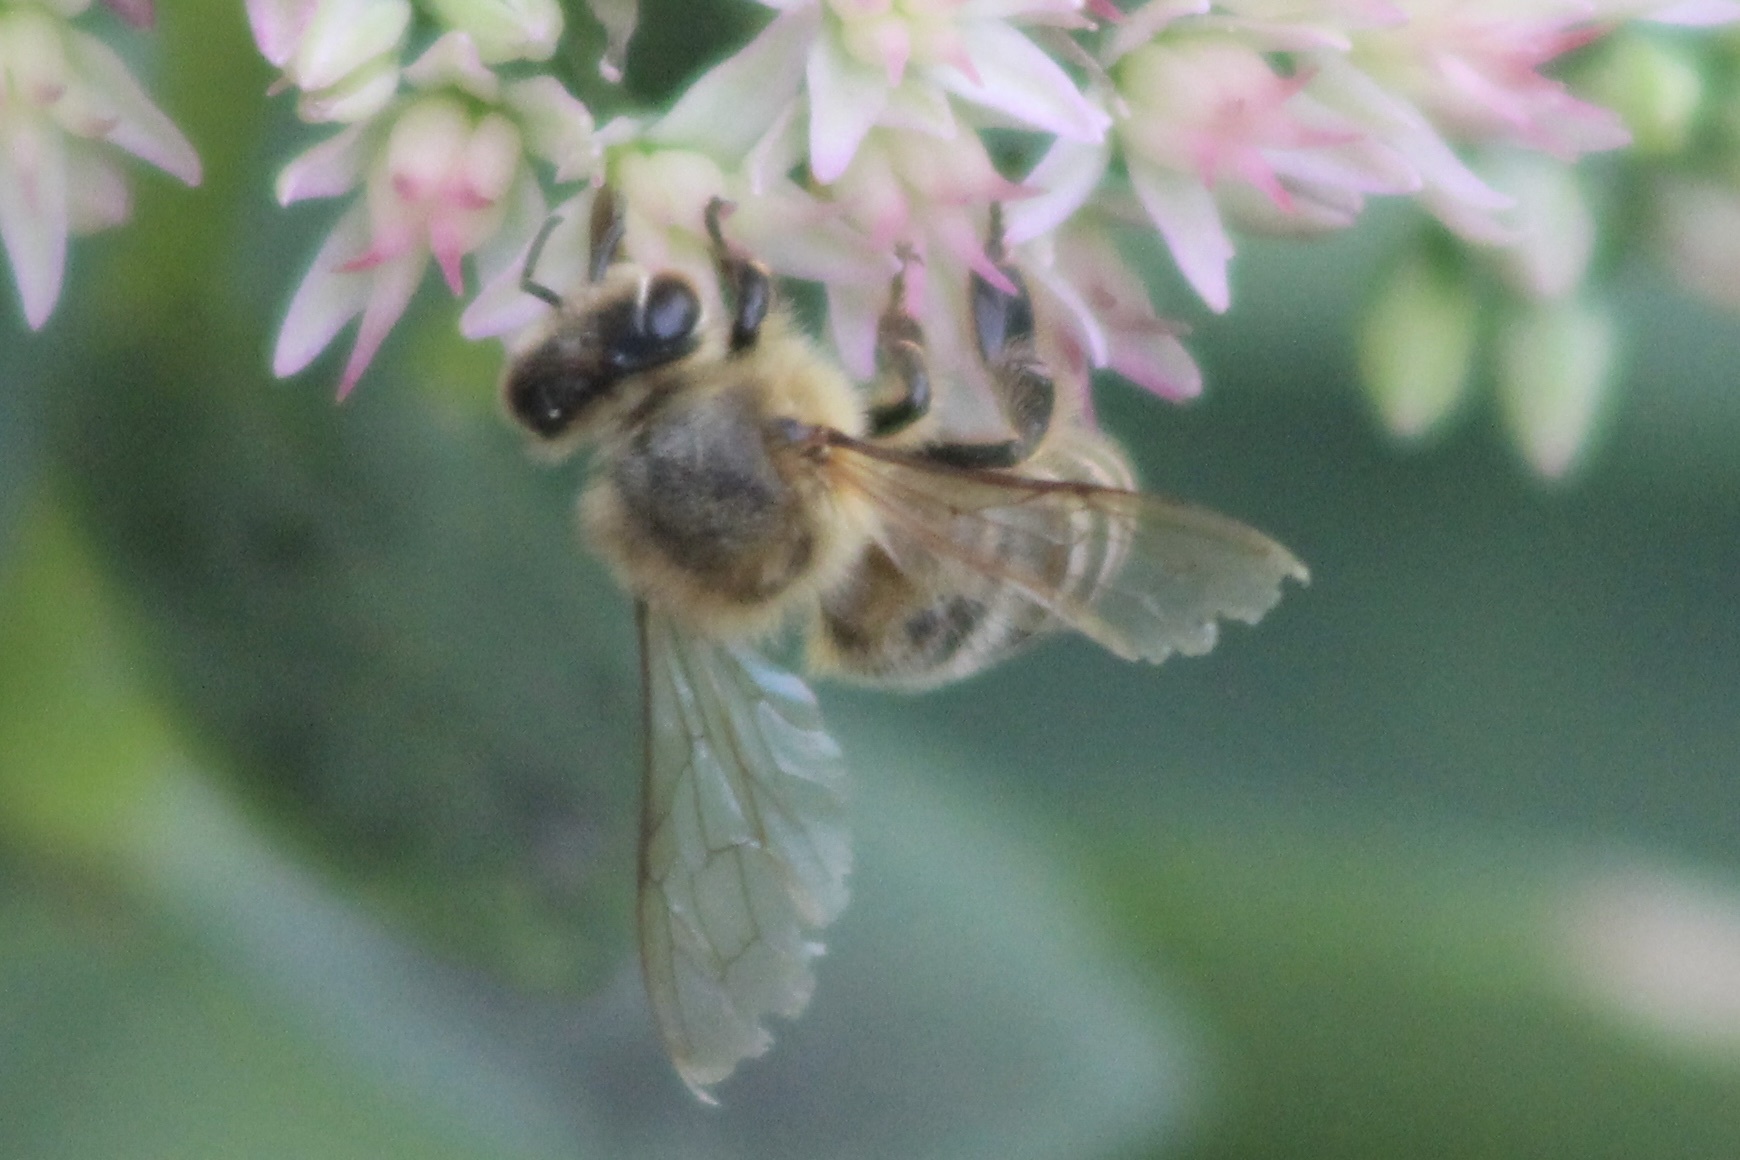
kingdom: Animalia
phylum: Arthropoda
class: Insecta
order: Hymenoptera
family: Apidae
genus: Apis
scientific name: Apis mellifera
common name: Honey bee
